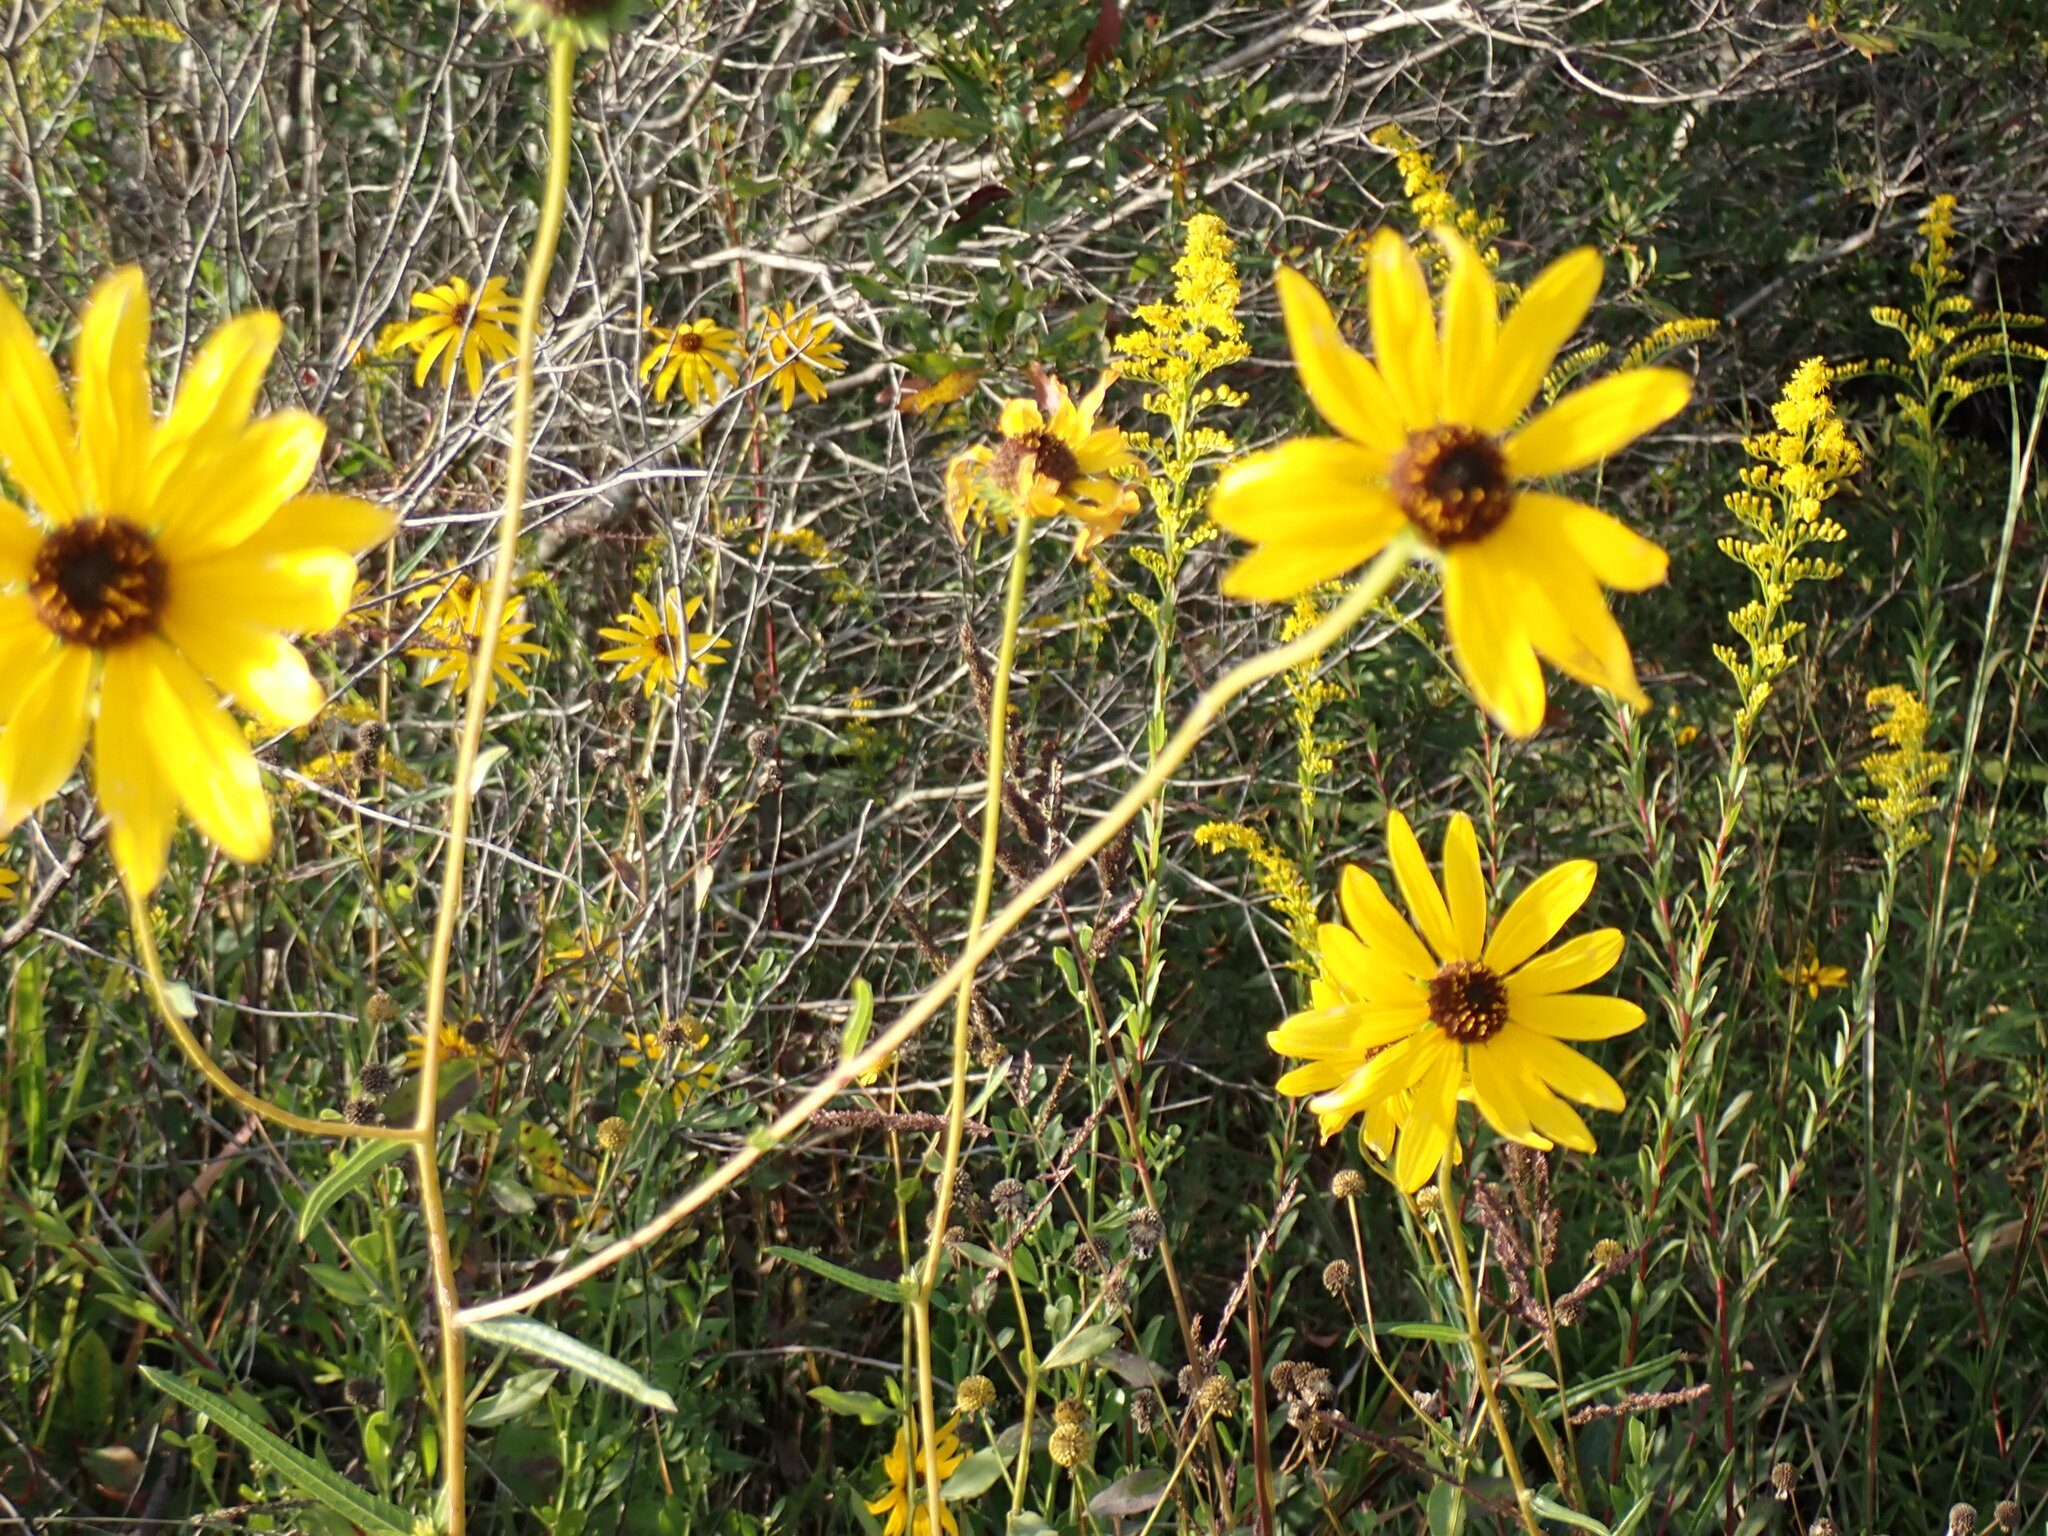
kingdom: Plantae
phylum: Tracheophyta
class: Magnoliopsida
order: Asterales
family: Asteraceae
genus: Helianthus
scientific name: Helianthus angustifolius
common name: Swamp sunflower
